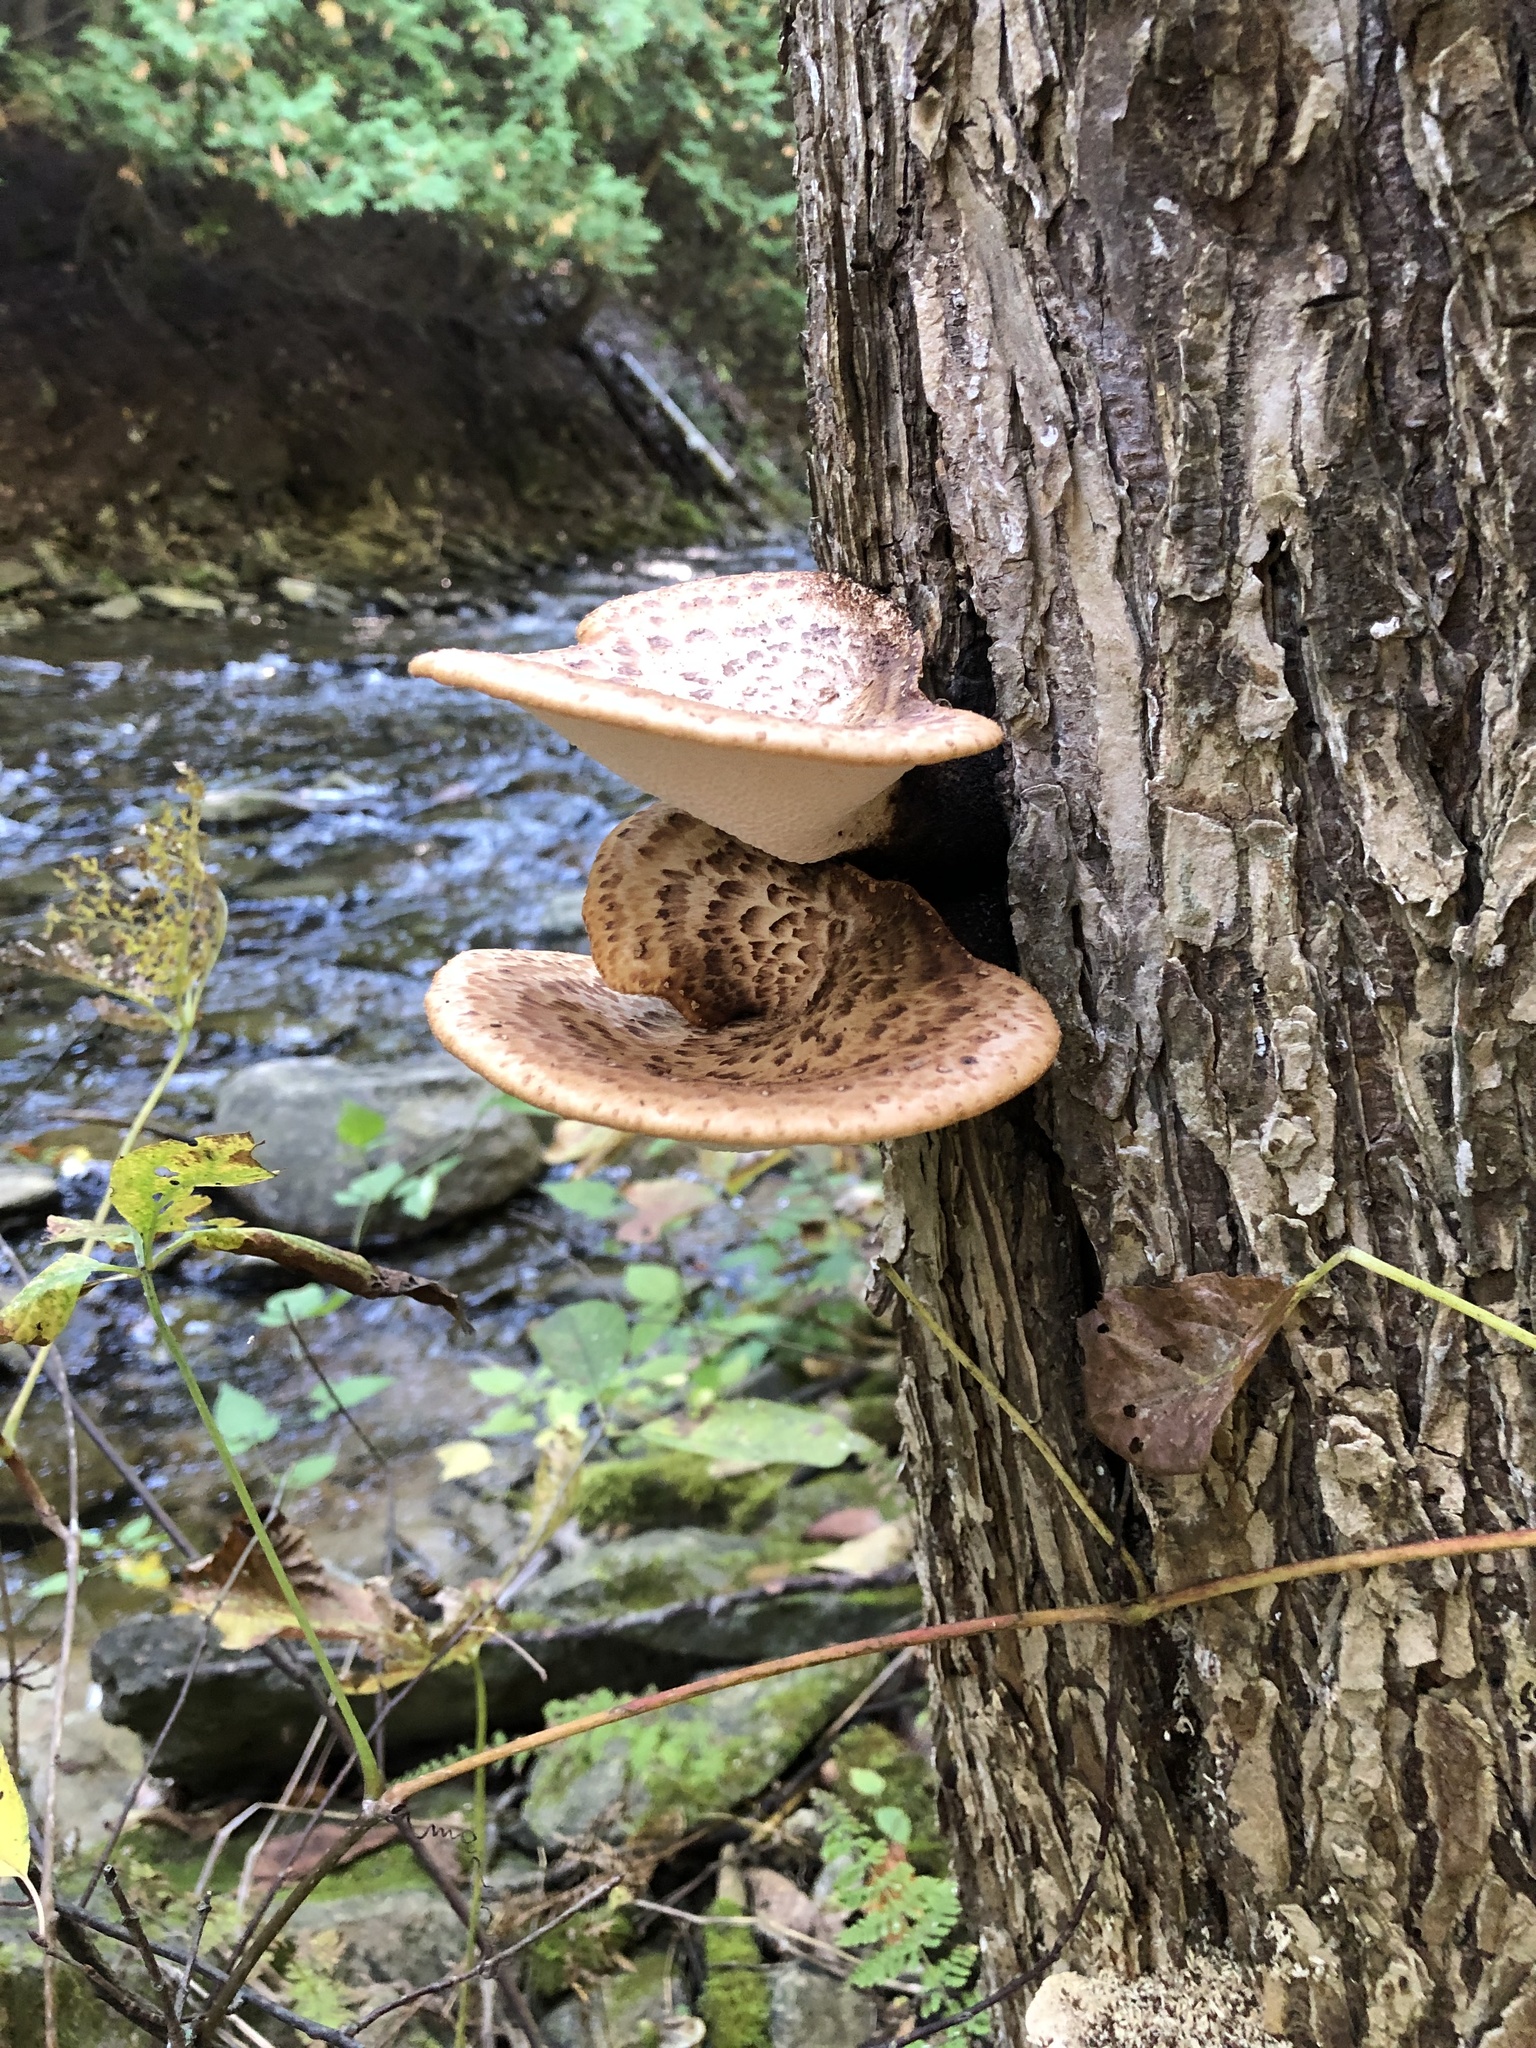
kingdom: Fungi
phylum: Basidiomycota
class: Agaricomycetes
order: Polyporales
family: Polyporaceae
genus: Cerioporus
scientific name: Cerioporus squamosus
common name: Dryad's saddle
